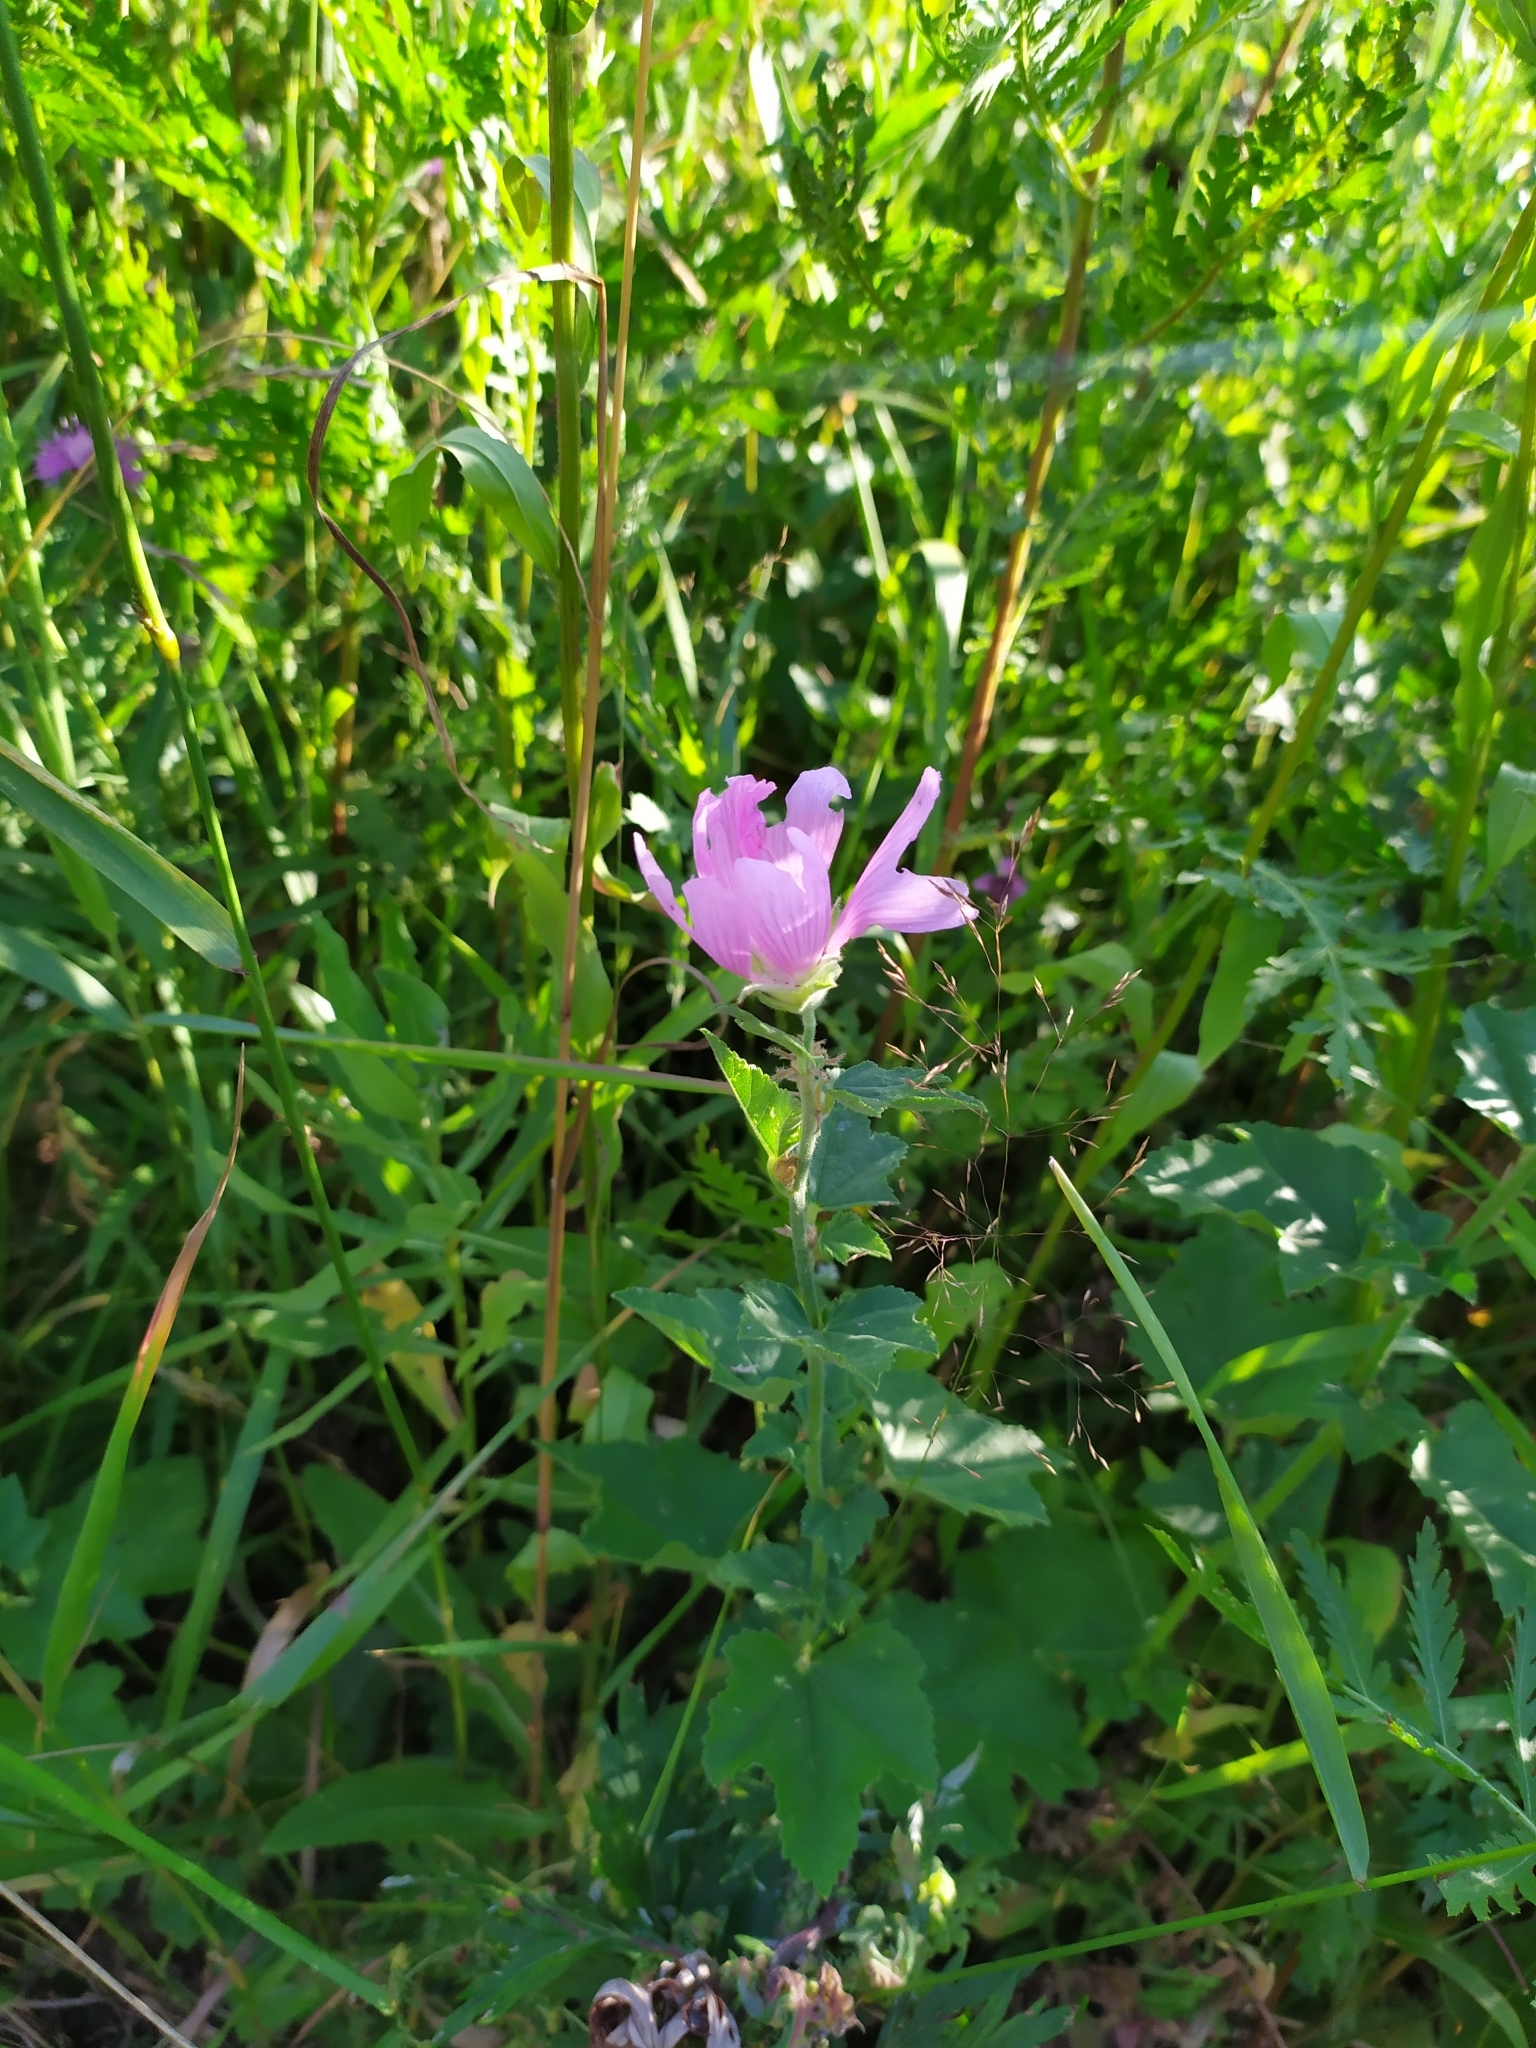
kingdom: Plantae
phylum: Tracheophyta
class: Magnoliopsida
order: Malvales
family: Malvaceae
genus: Malva
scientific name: Malva thuringiaca
